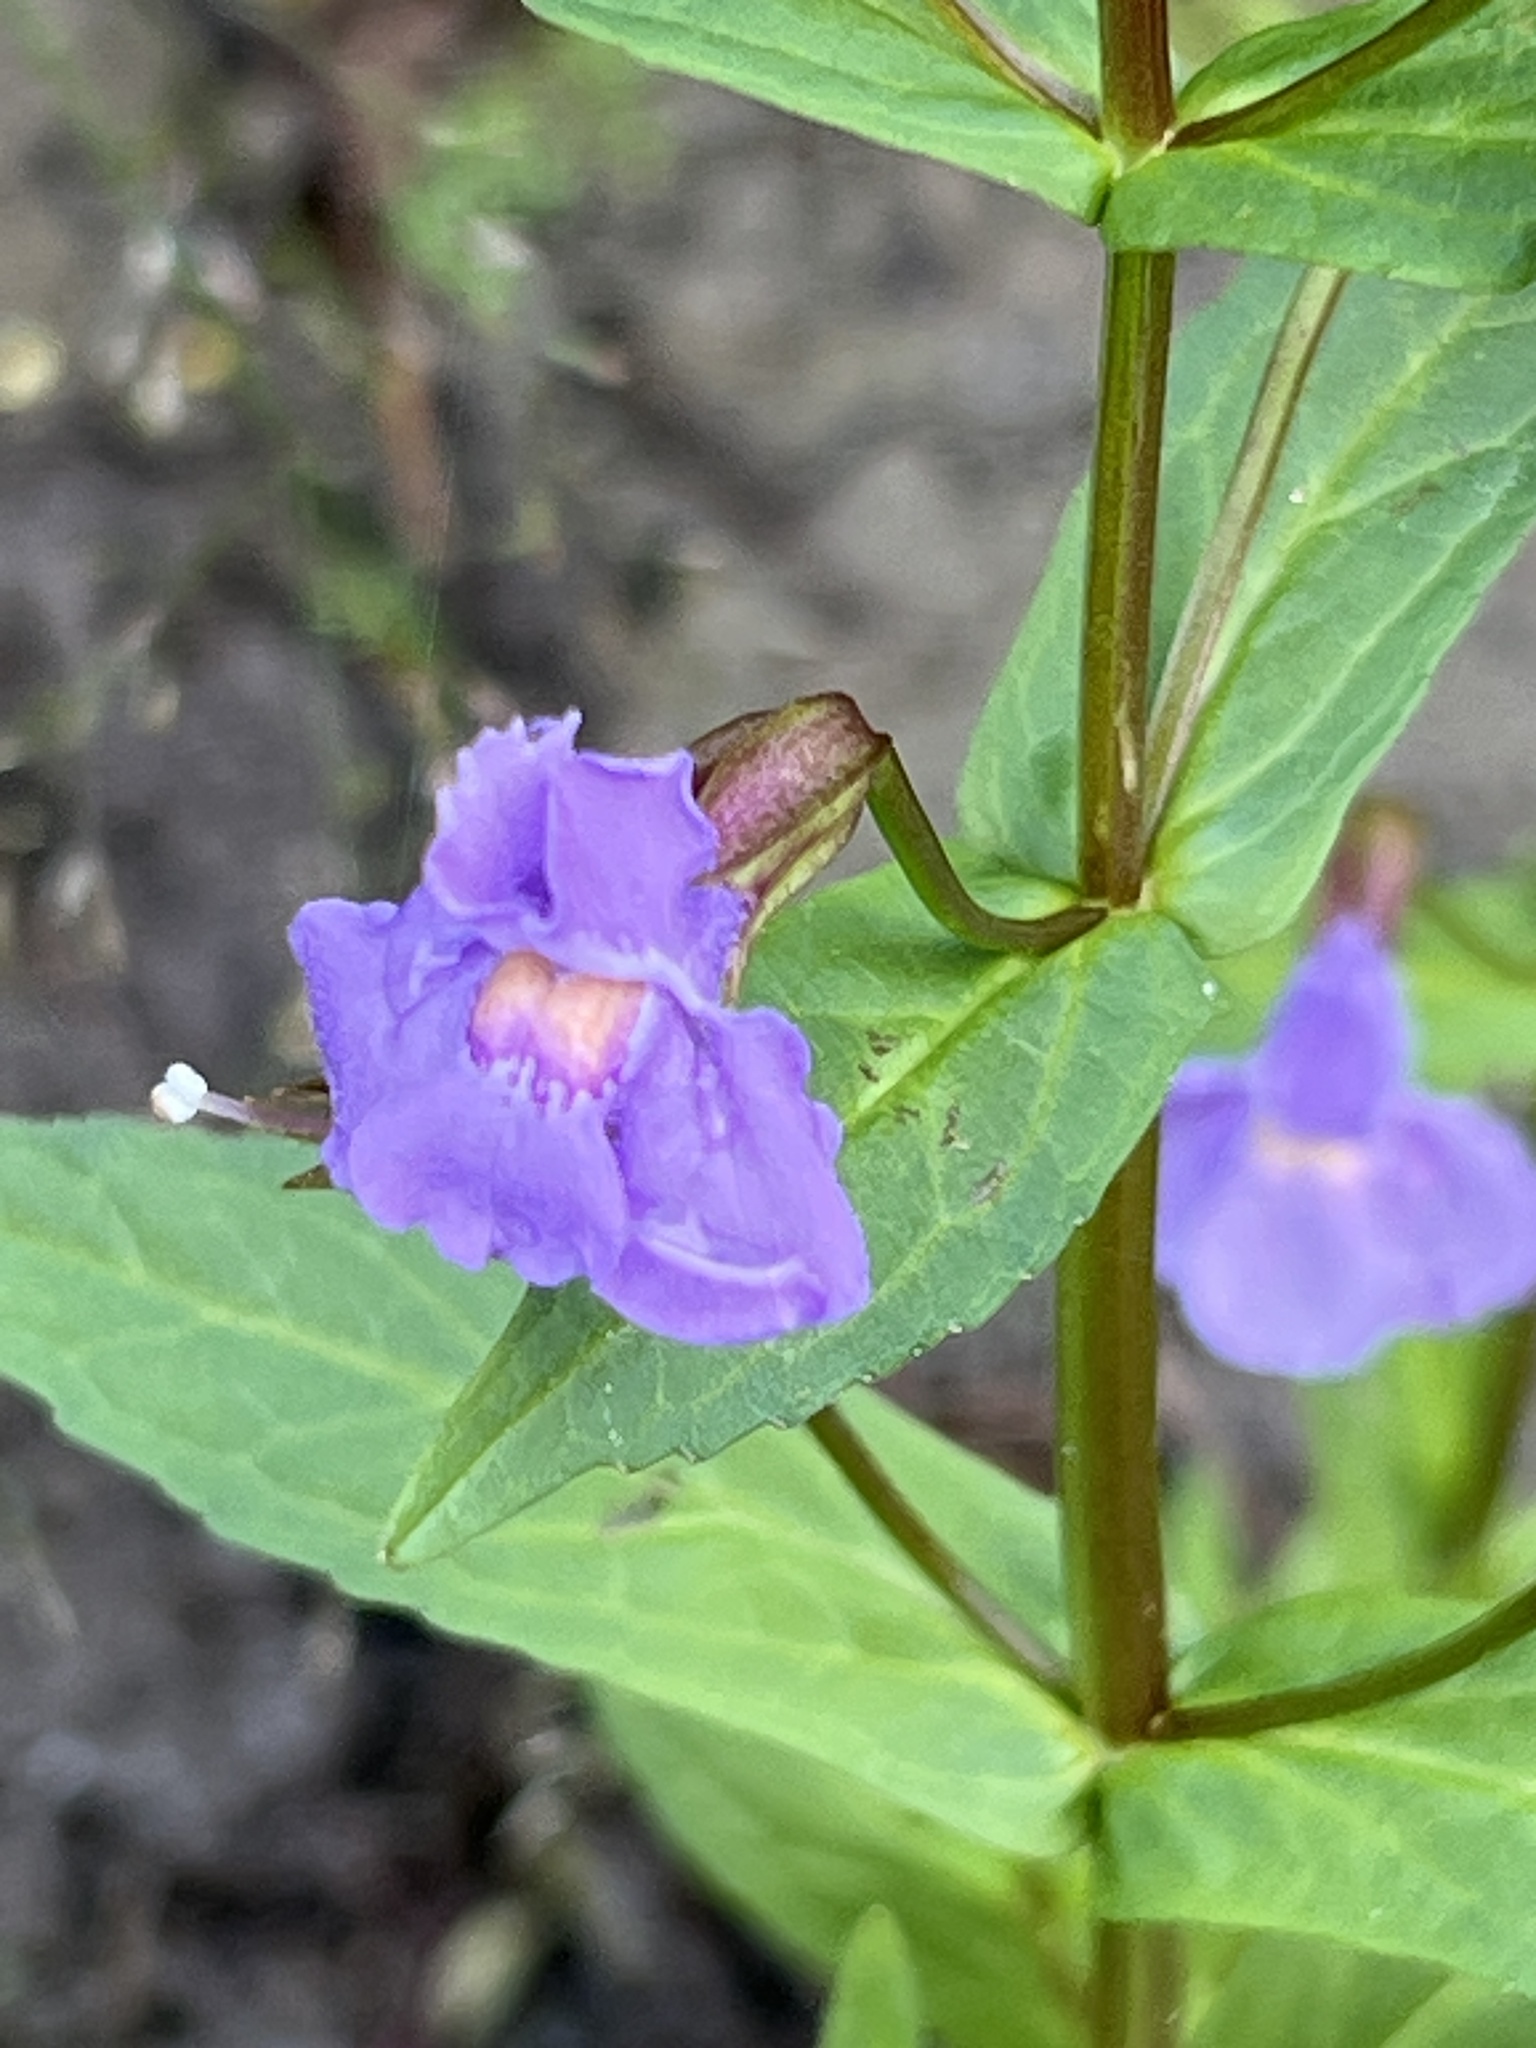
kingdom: Plantae
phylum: Tracheophyta
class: Magnoliopsida
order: Lamiales
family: Phrymaceae
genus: Mimulus
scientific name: Mimulus ringens
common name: Allegheny monkeyflower
